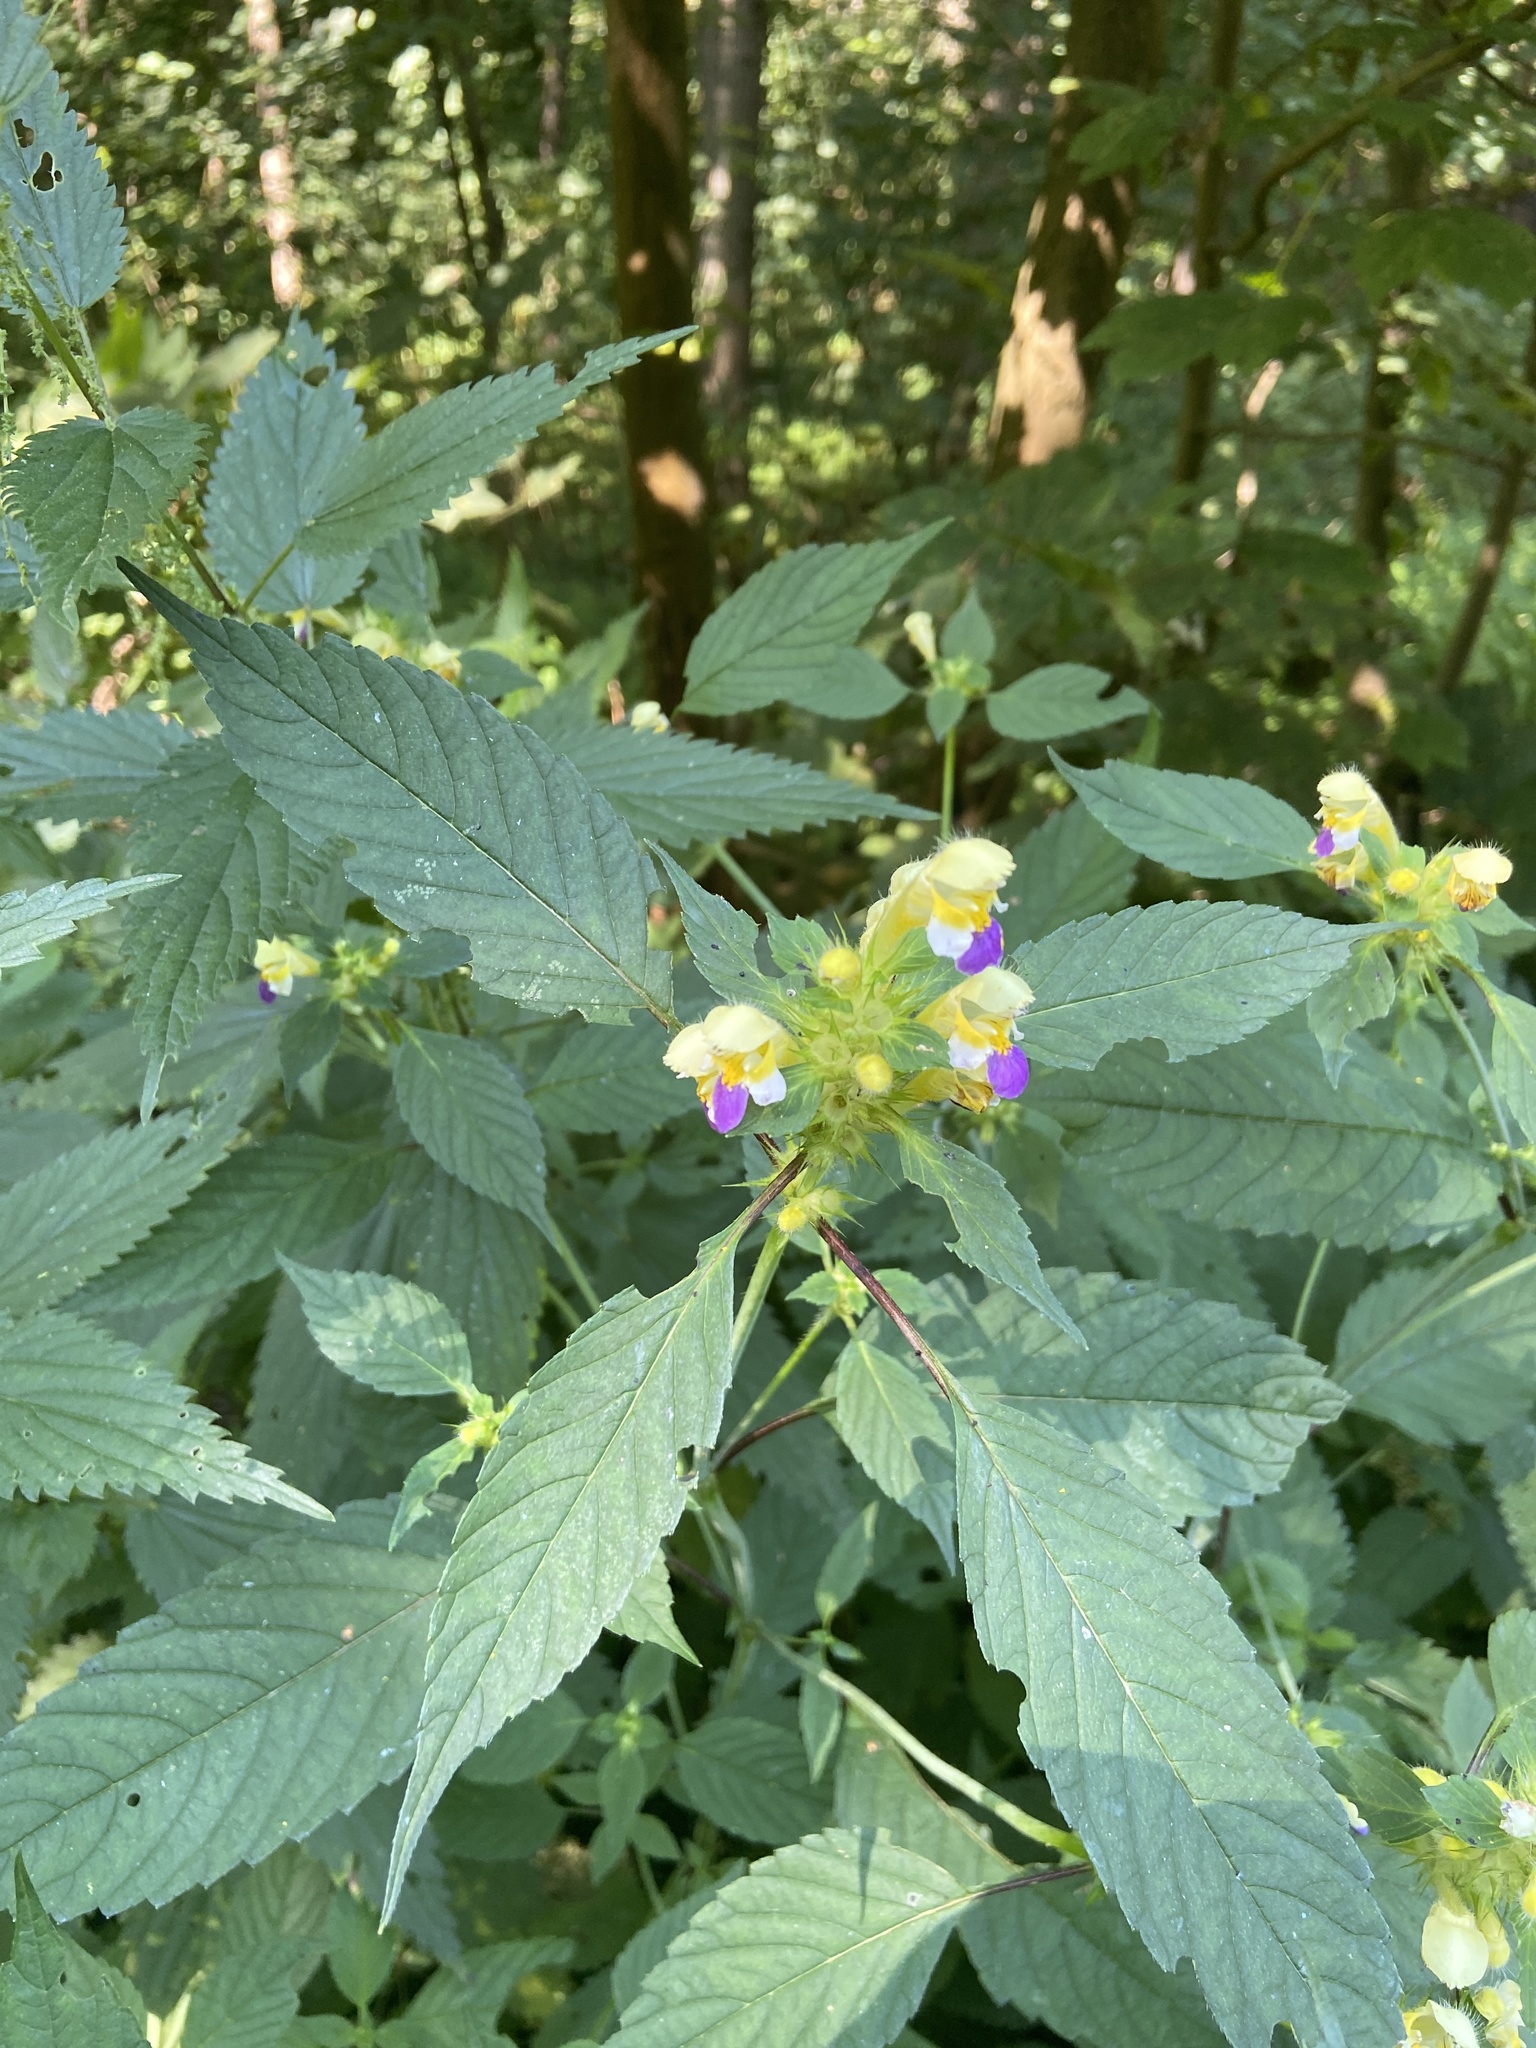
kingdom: Plantae
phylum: Tracheophyta
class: Magnoliopsida
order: Lamiales
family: Lamiaceae
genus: Galeopsis
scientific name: Galeopsis speciosa
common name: Large-flowered hemp-nettle
